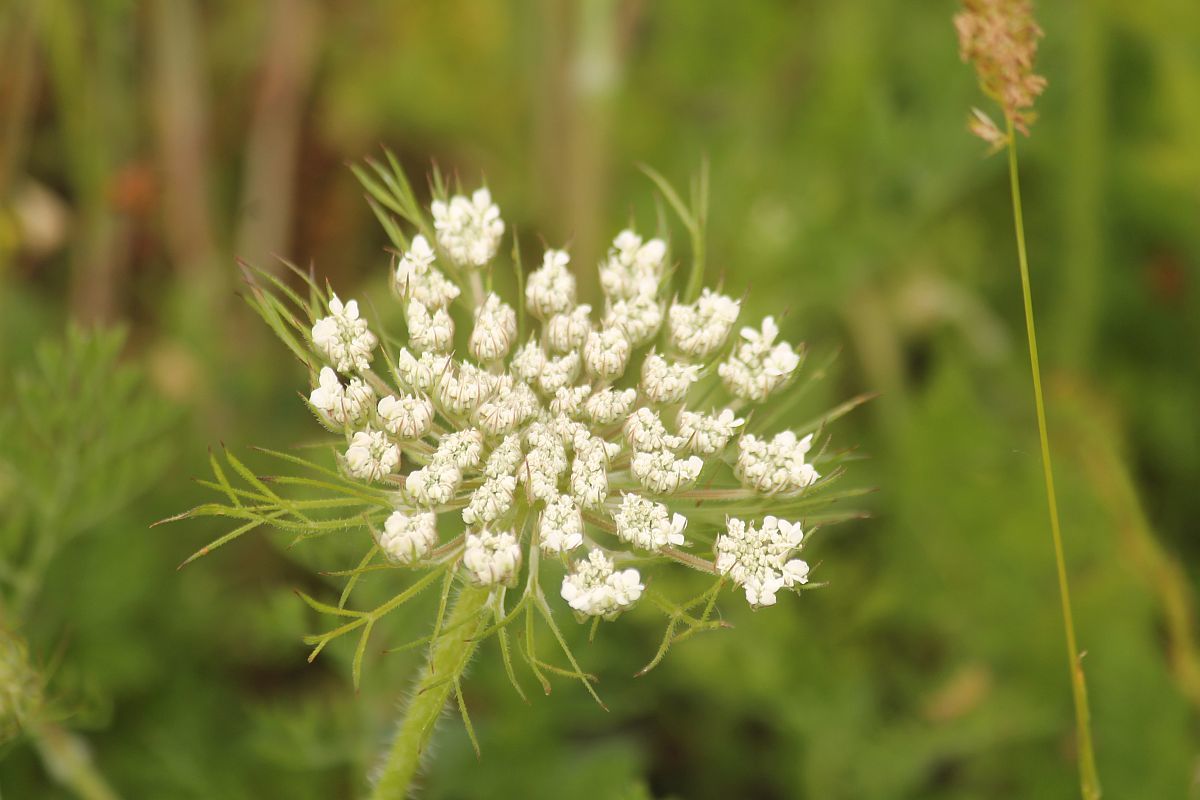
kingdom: Plantae
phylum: Tracheophyta
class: Magnoliopsida
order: Apiales
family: Apiaceae
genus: Daucus
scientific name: Daucus carota
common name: Wild carrot
